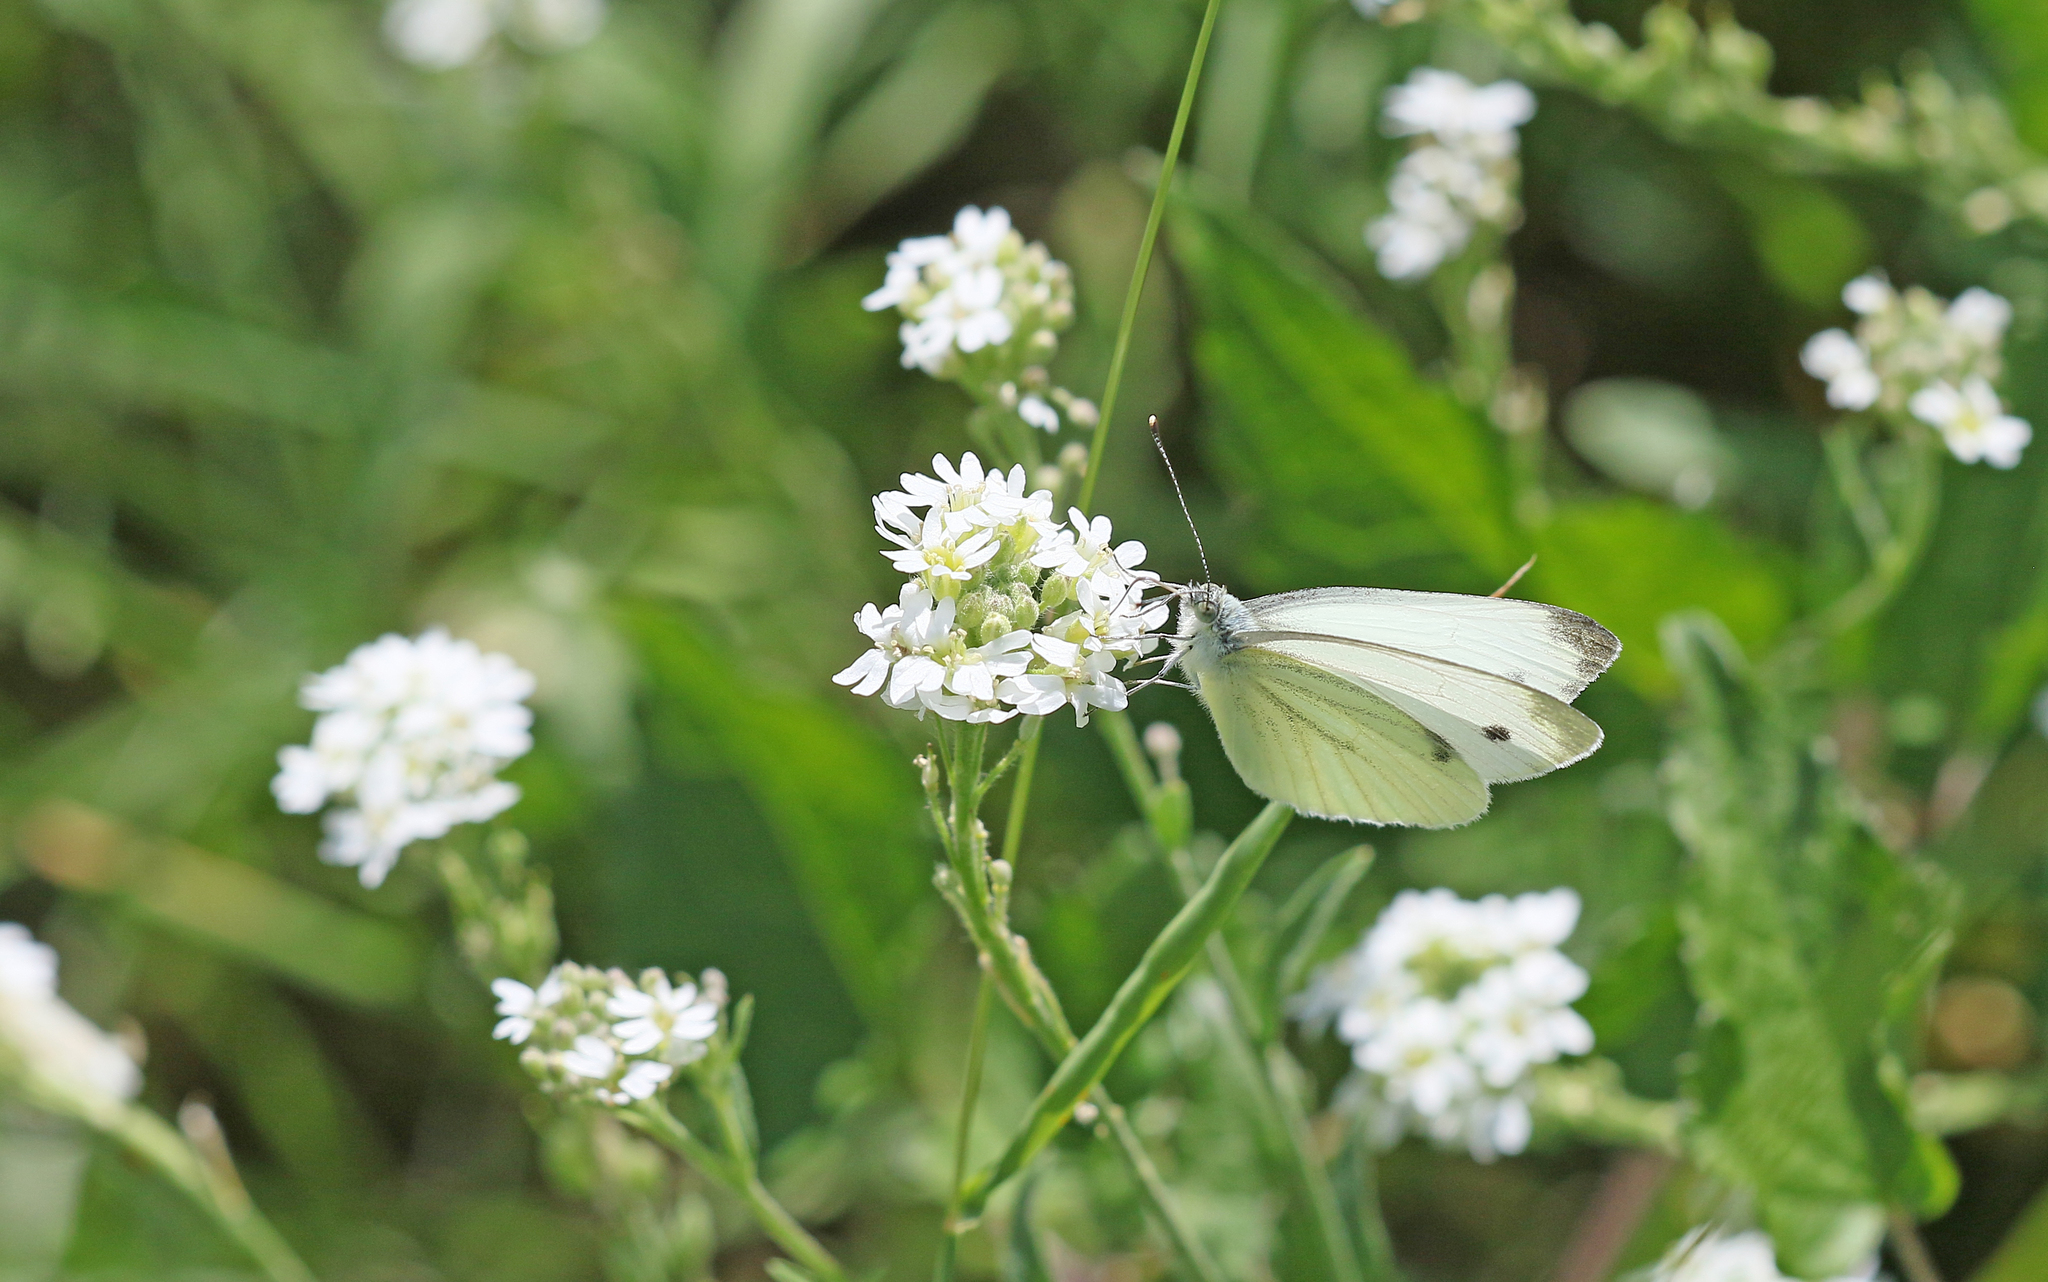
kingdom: Animalia
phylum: Arthropoda
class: Insecta
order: Lepidoptera
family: Pieridae
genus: Pieris
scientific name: Pieris rapae
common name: Small white
